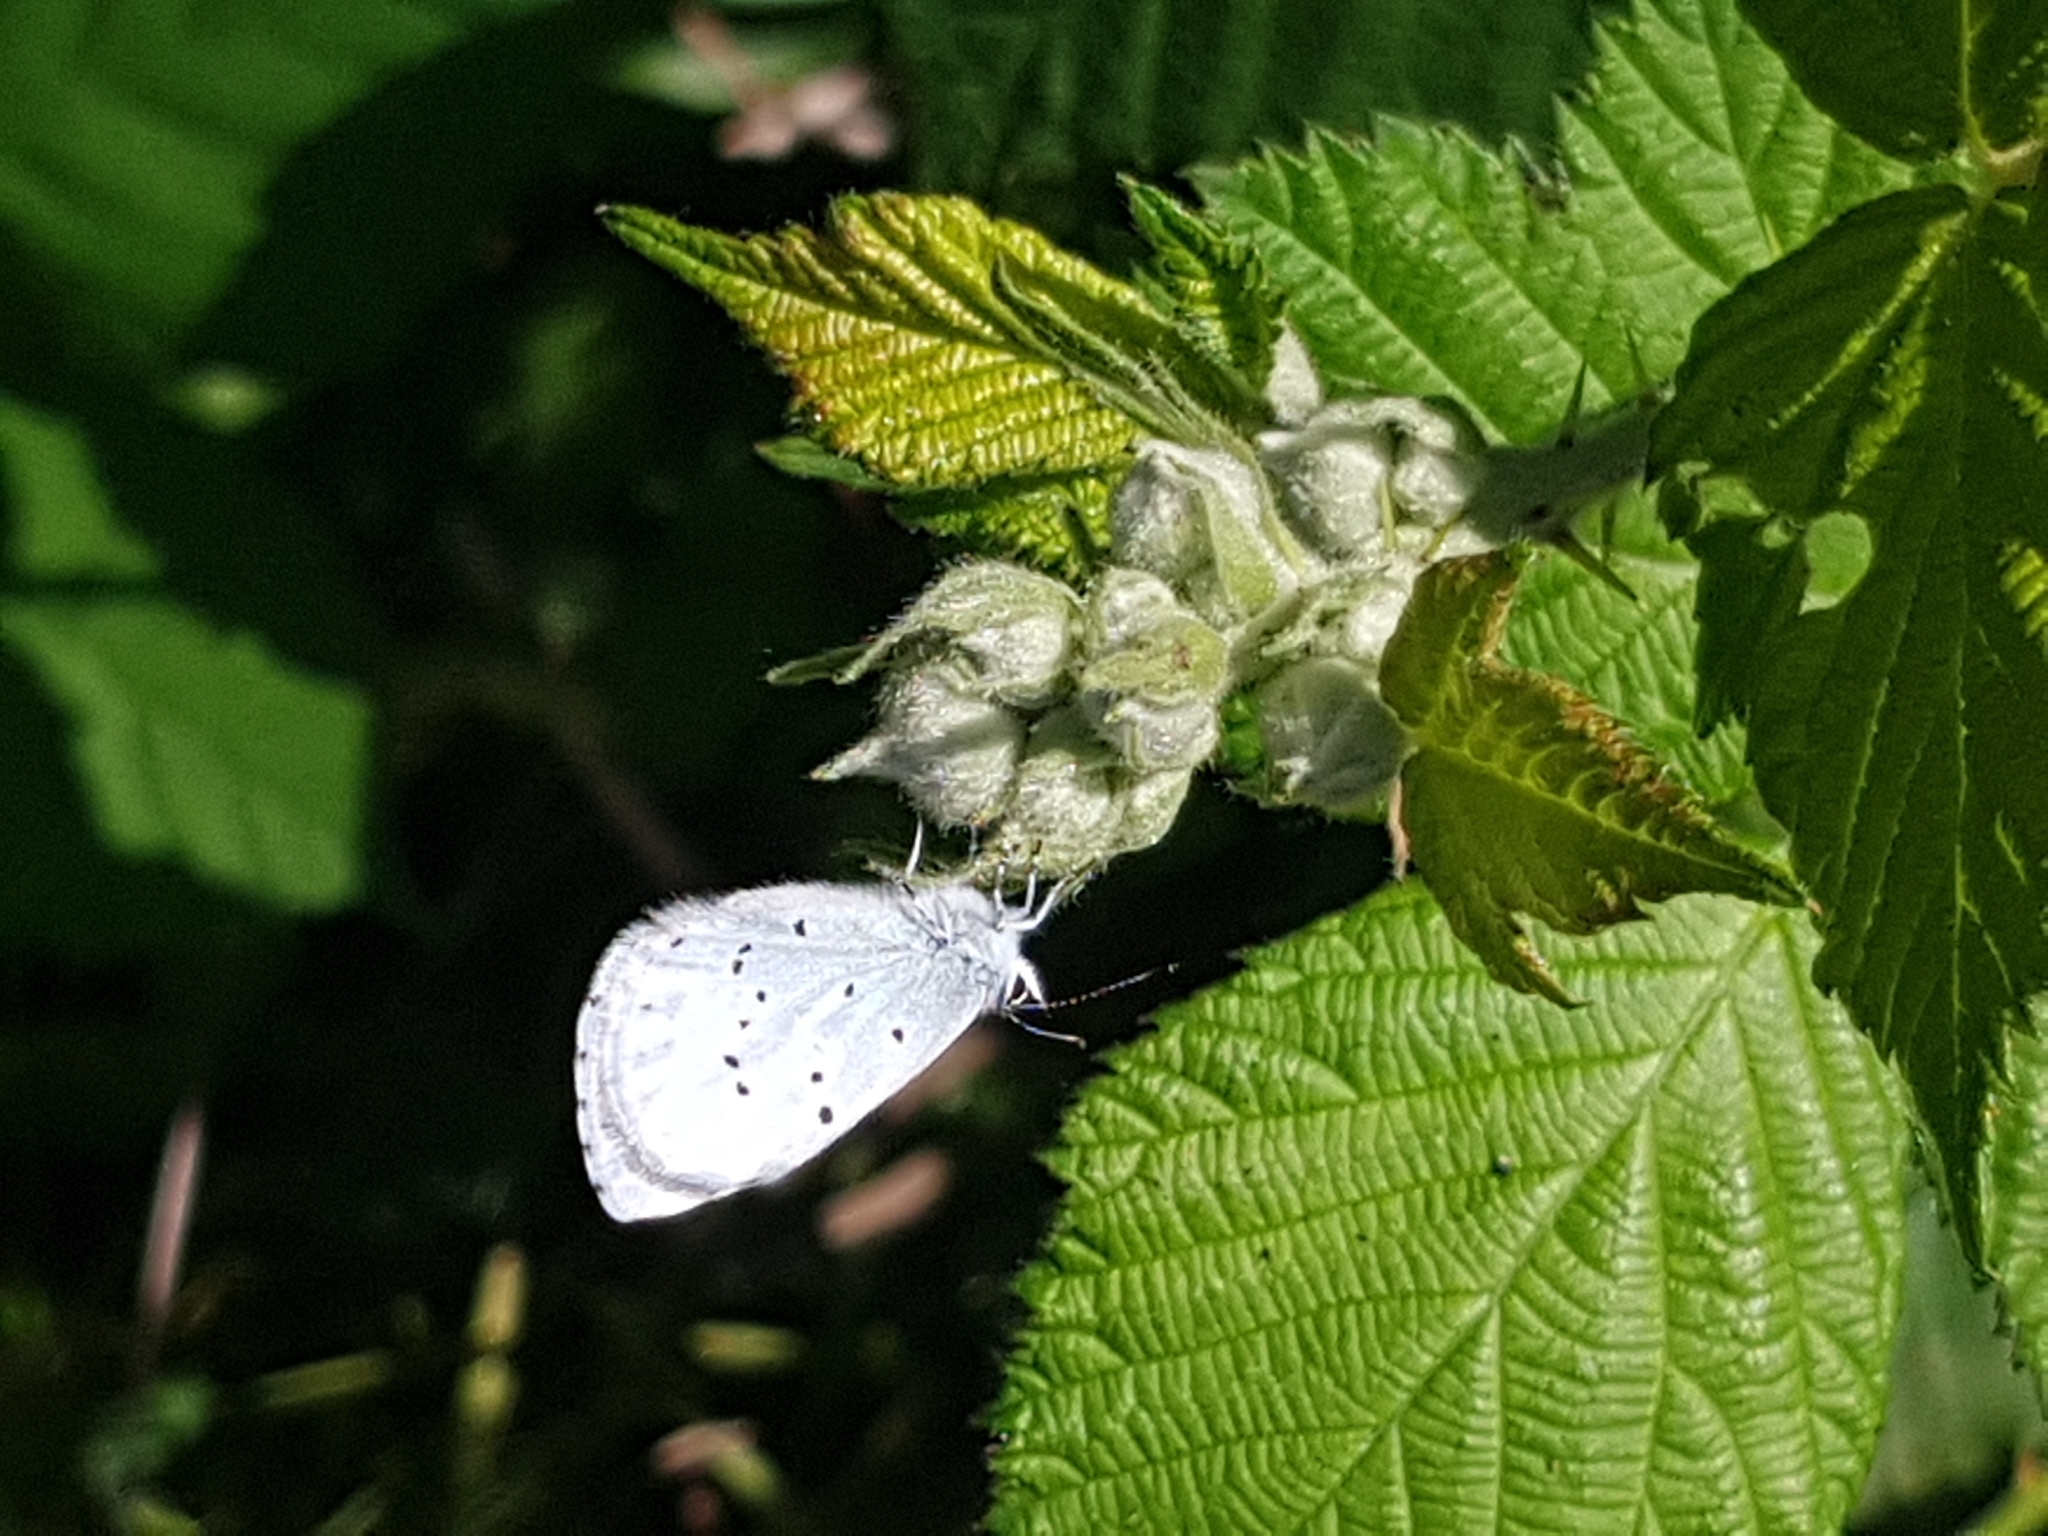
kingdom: Animalia
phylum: Arthropoda
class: Insecta
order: Lepidoptera
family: Lycaenidae
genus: Celastrina
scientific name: Celastrina argiolus
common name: Holly blue
